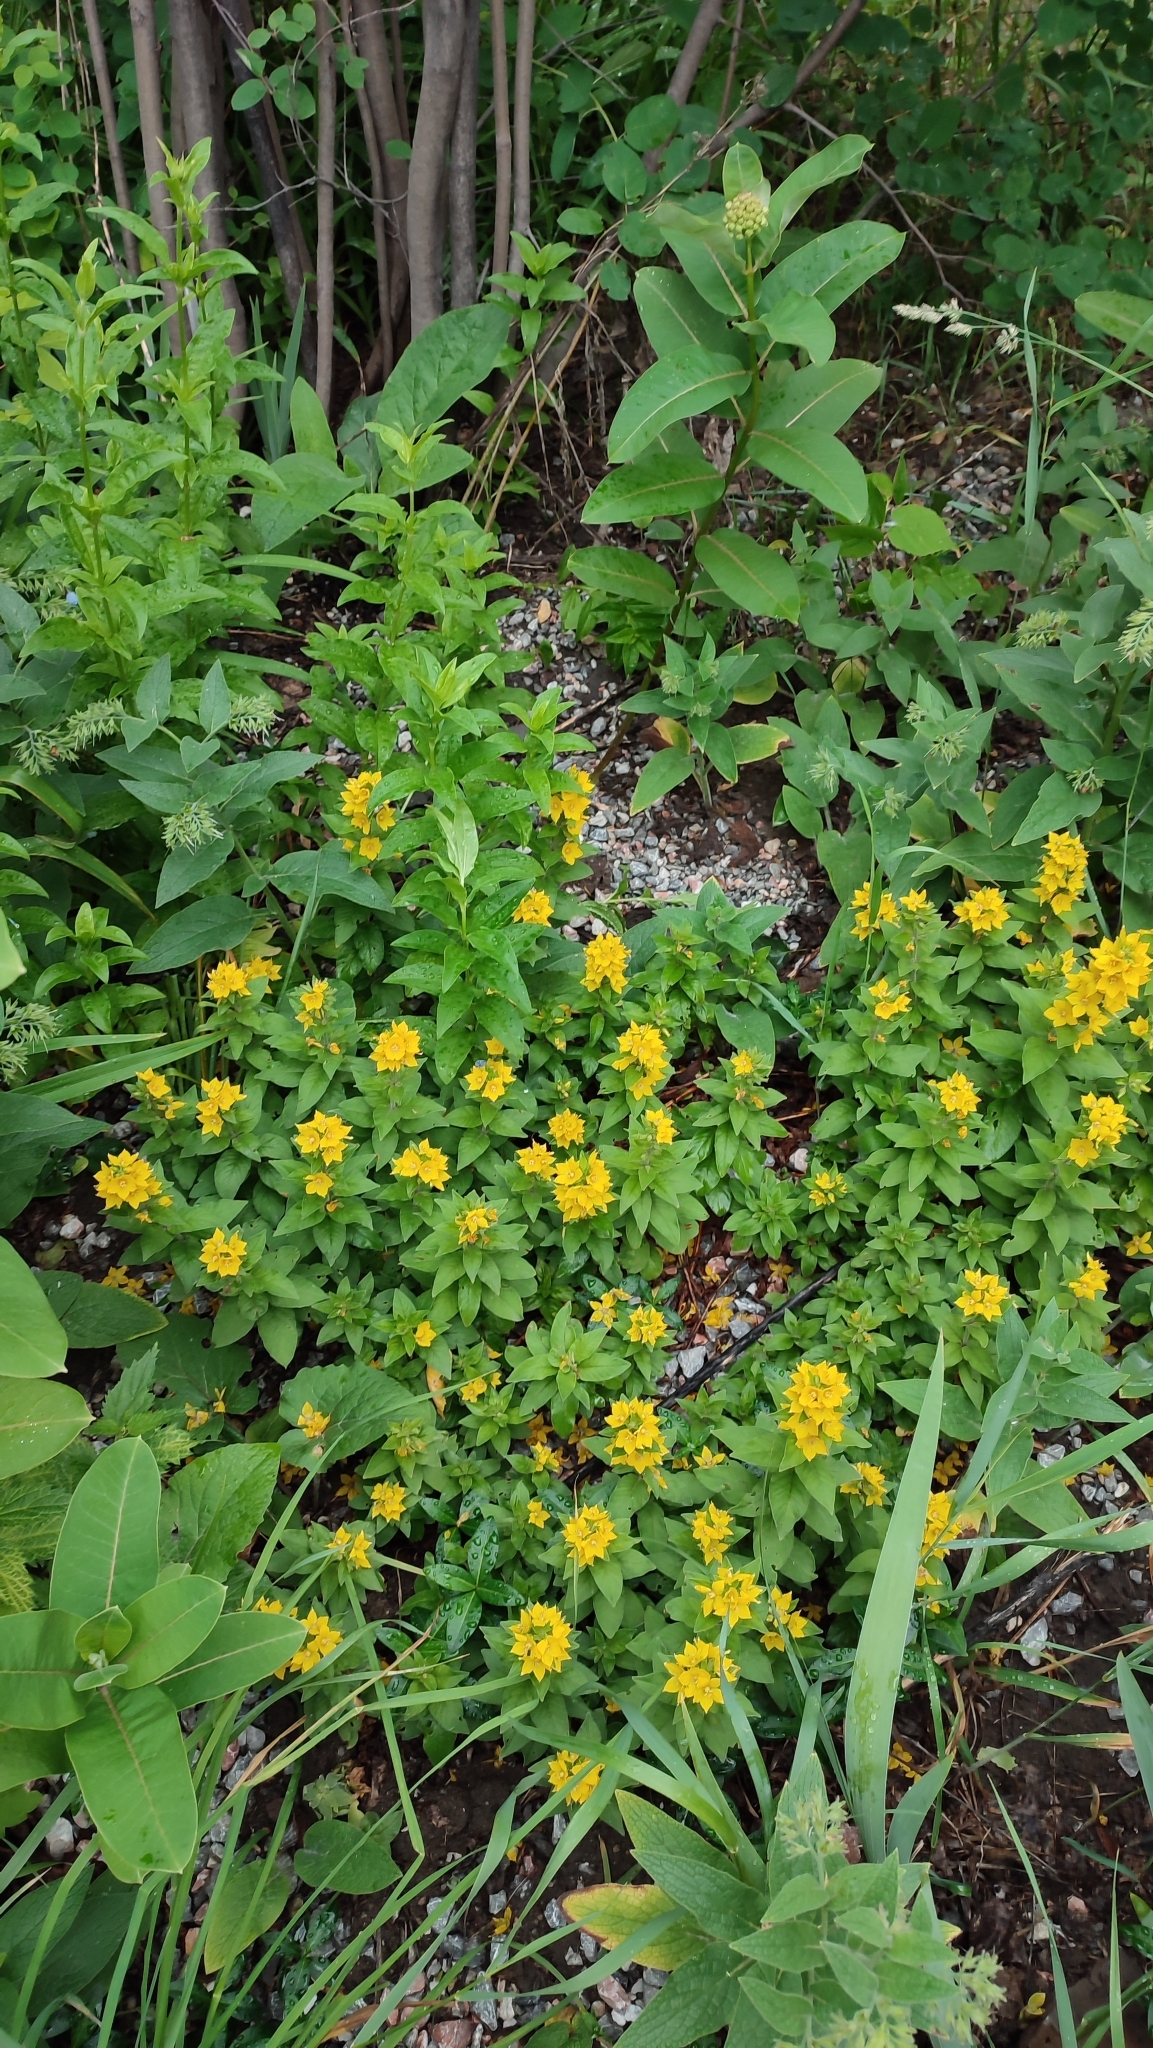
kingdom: Plantae
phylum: Tracheophyta
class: Magnoliopsida
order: Ericales
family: Primulaceae
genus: Lysimachia
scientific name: Lysimachia punctata
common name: Dotted loosestrife
